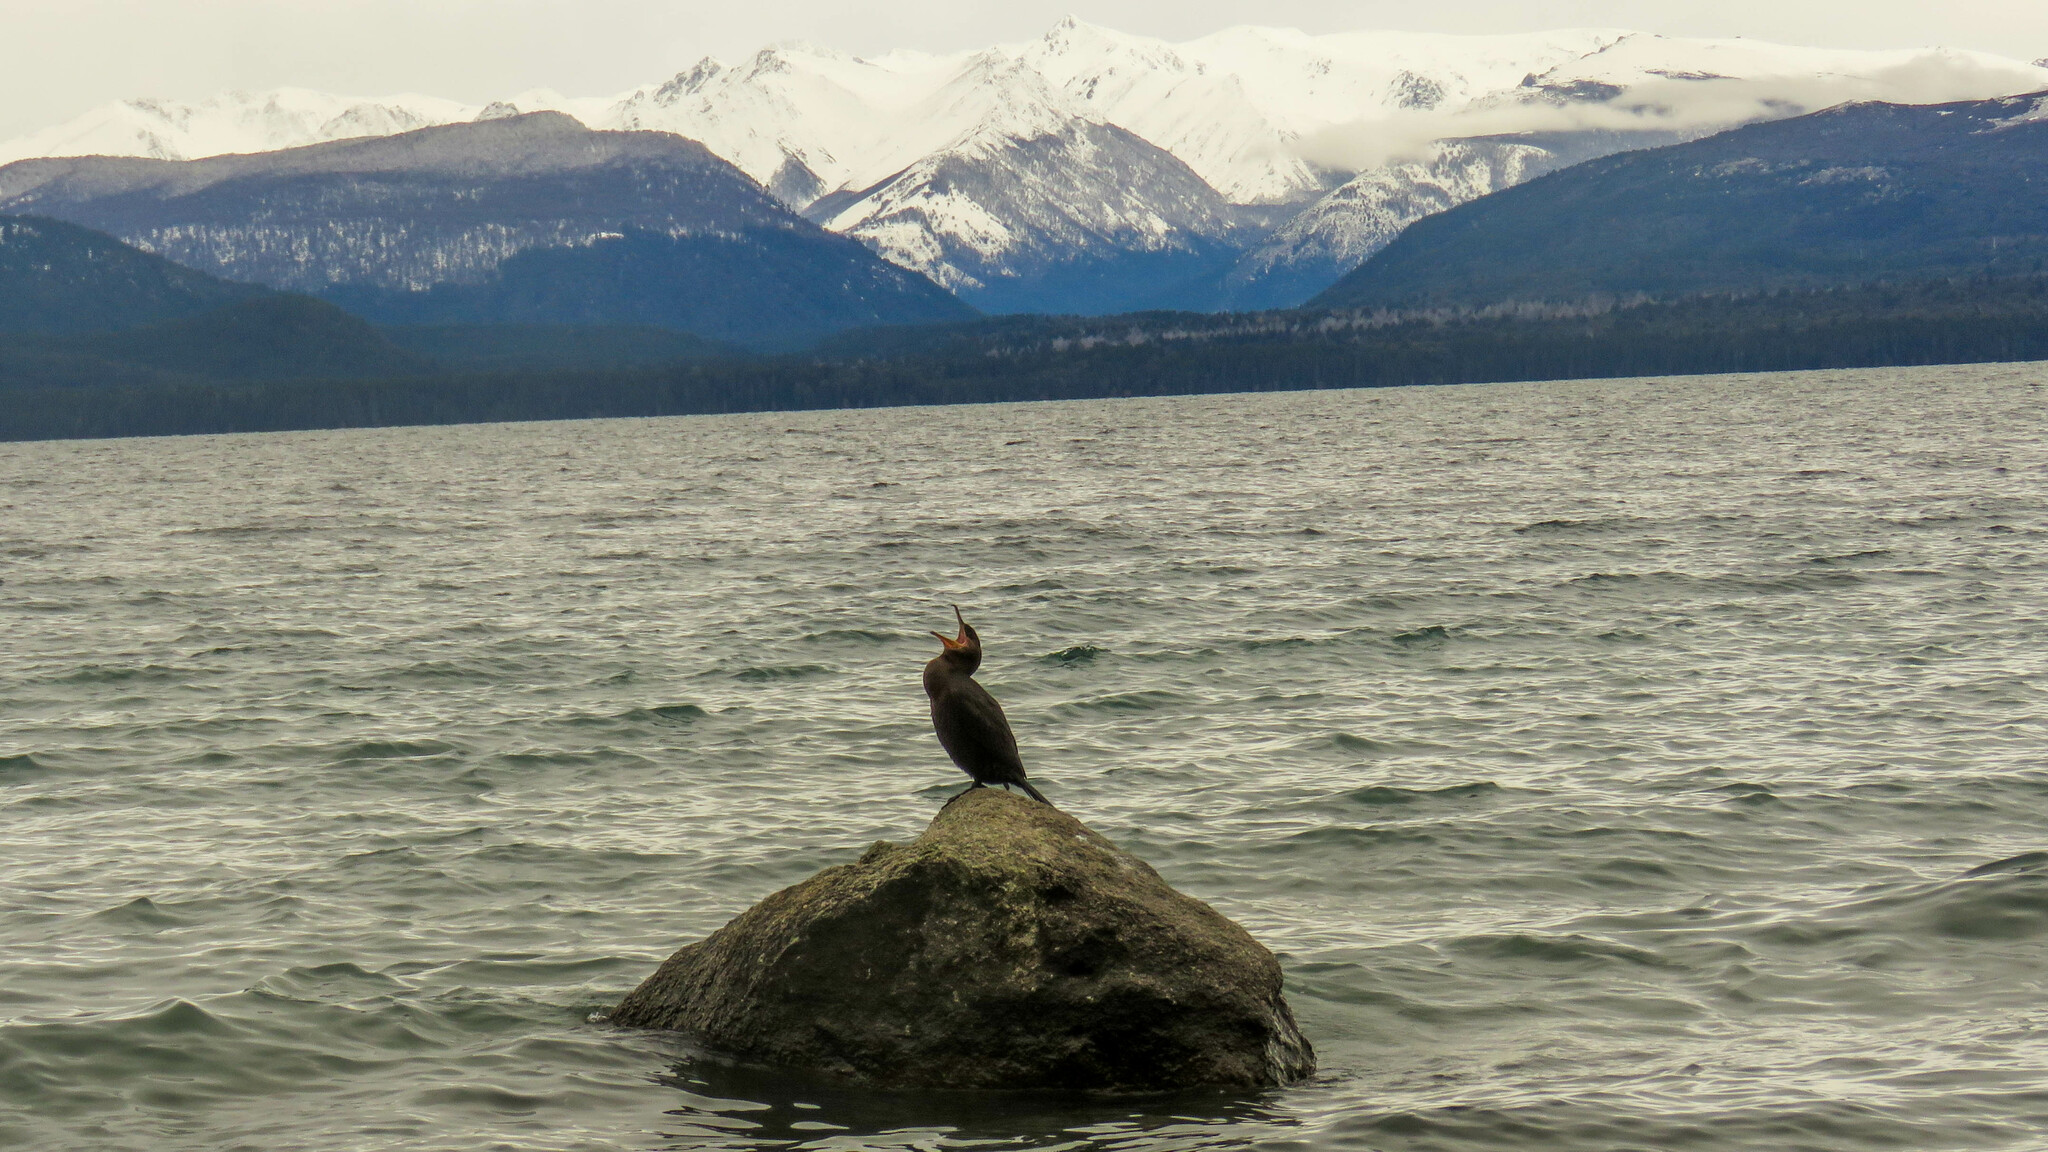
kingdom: Animalia
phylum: Chordata
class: Aves
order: Suliformes
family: Phalacrocoracidae
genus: Phalacrocorax
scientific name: Phalacrocorax brasilianus
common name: Neotropic cormorant
